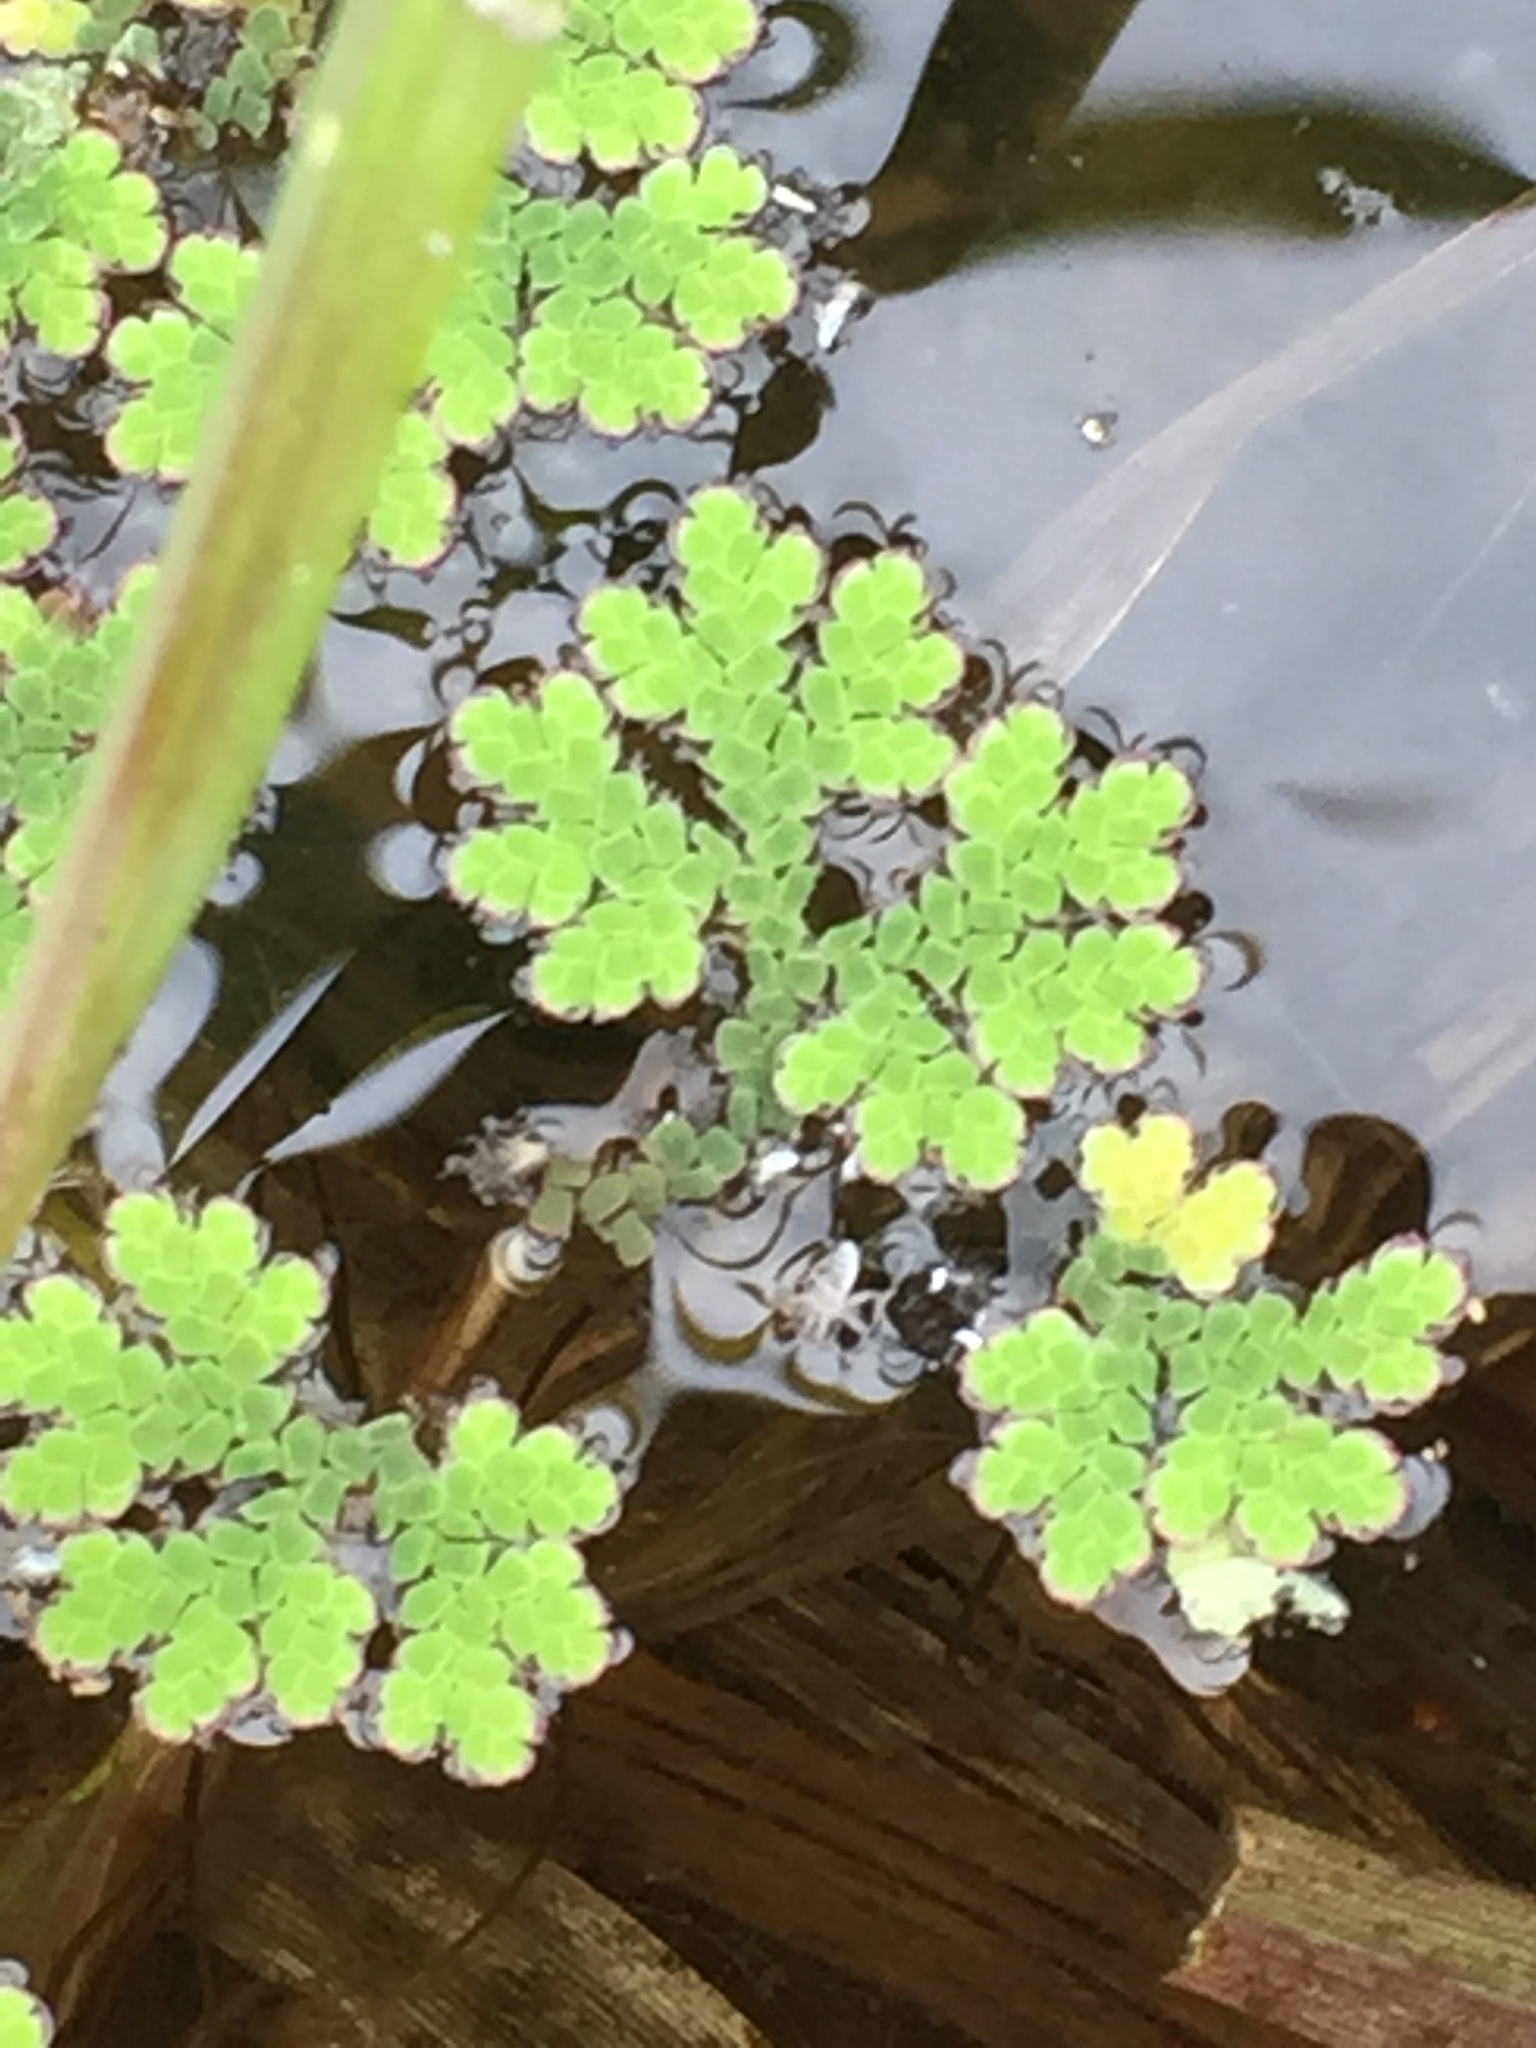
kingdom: Plantae
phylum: Tracheophyta
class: Polypodiopsida
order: Salviniales
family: Salviniaceae
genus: Azolla
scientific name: Azolla filiculoides
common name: Water fern
